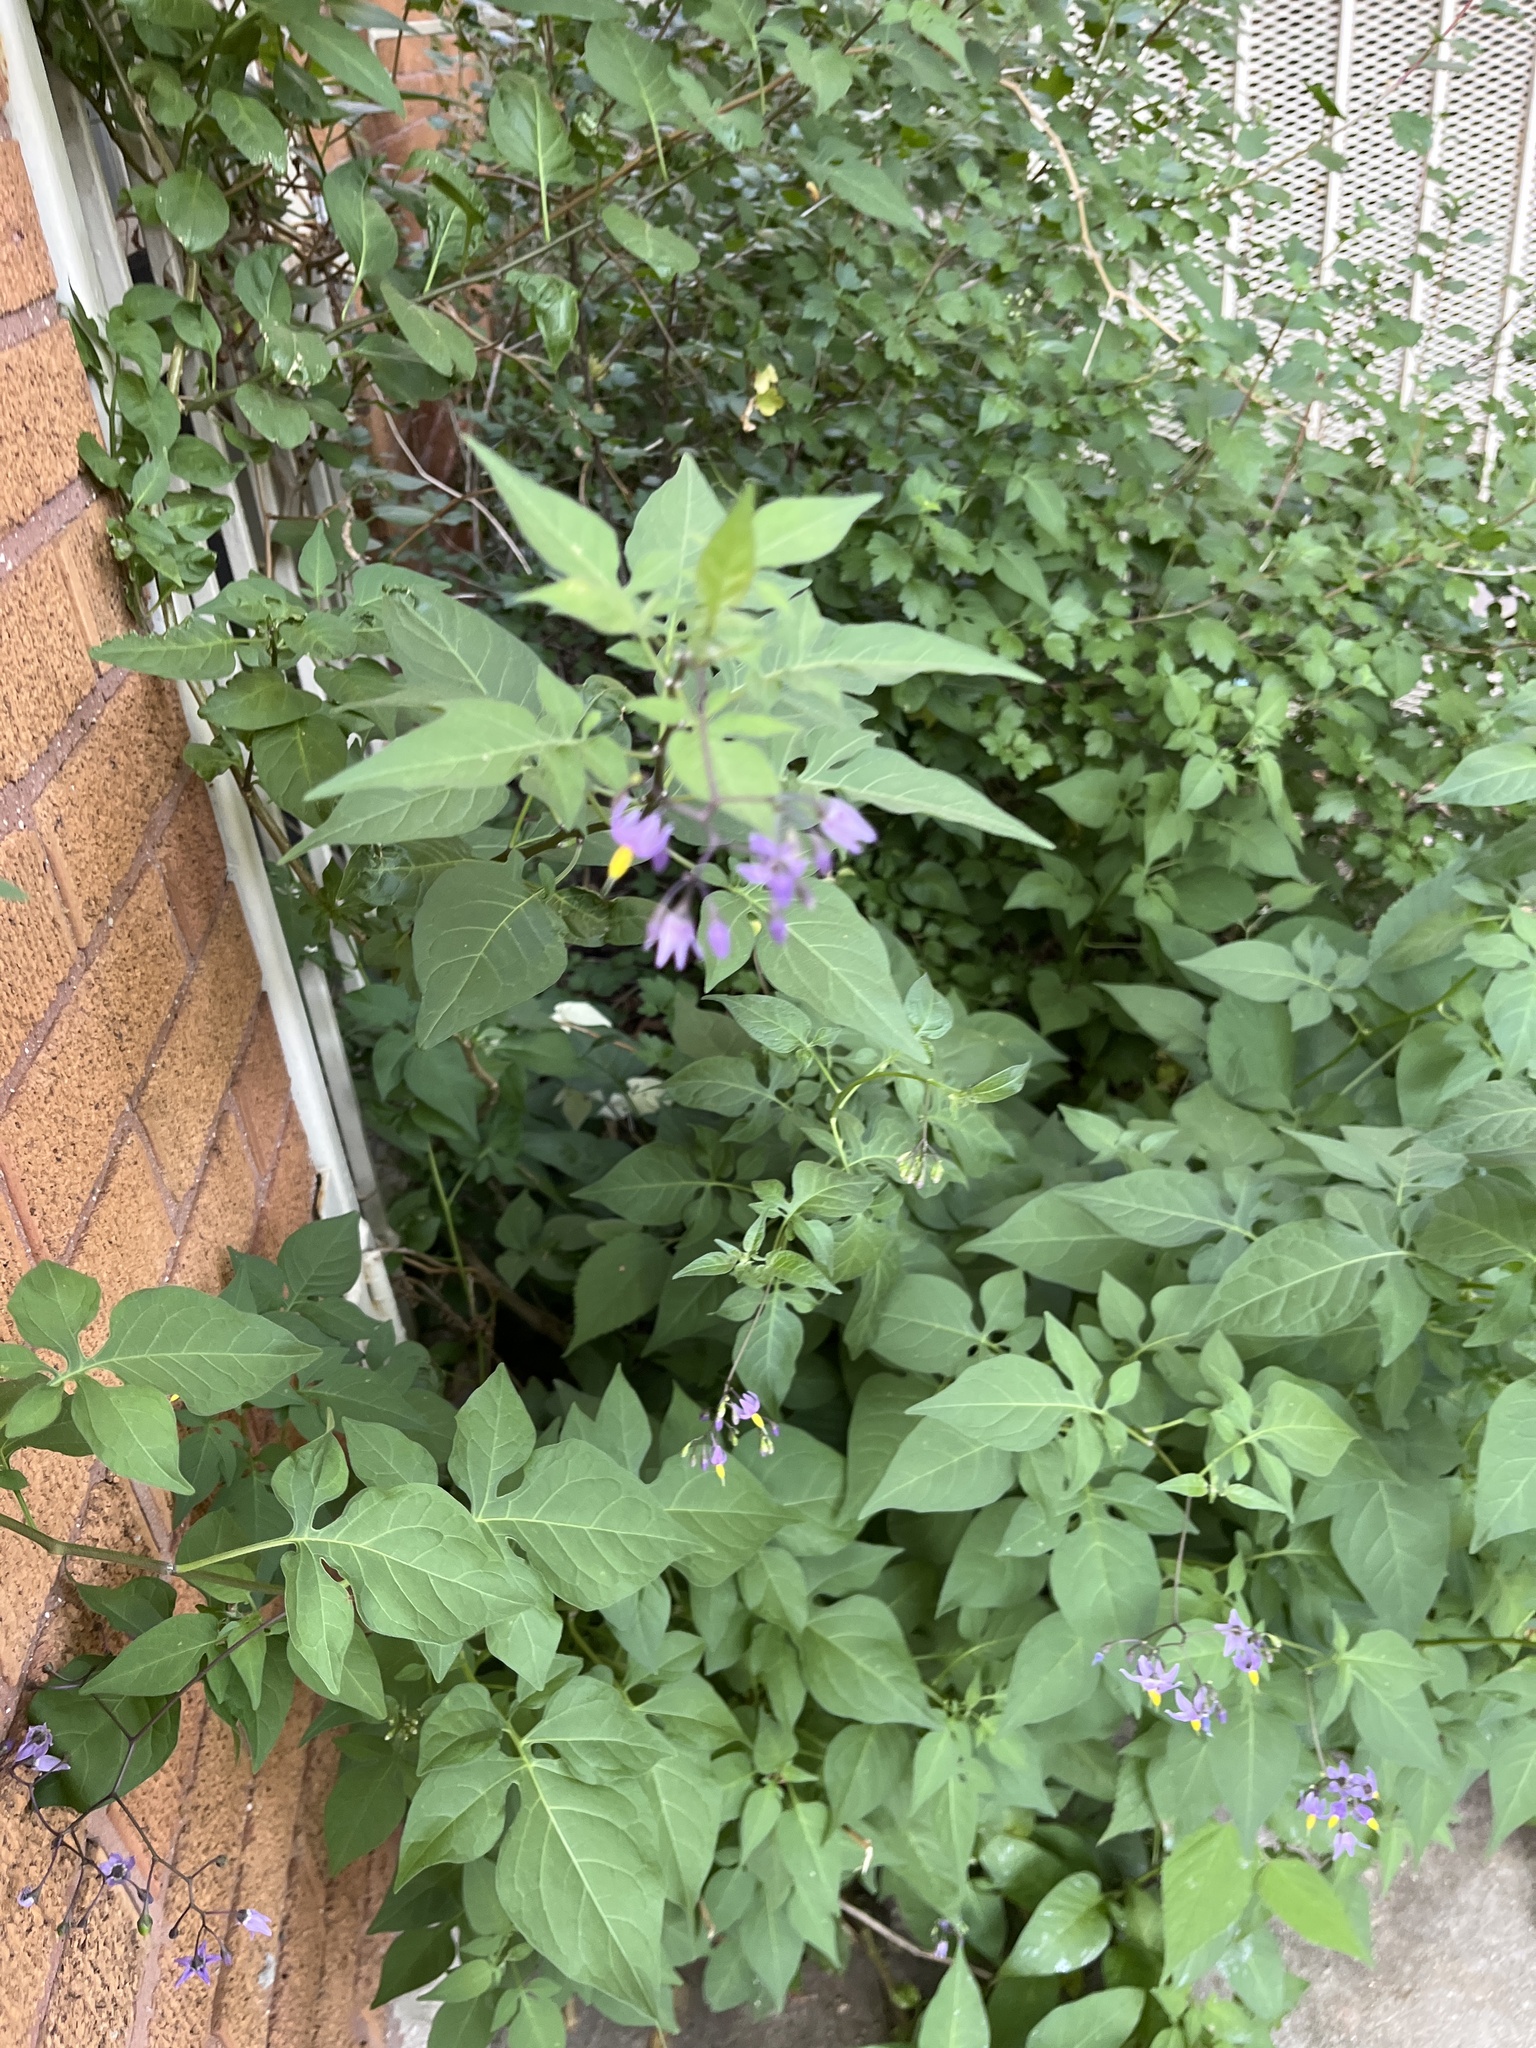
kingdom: Plantae
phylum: Tracheophyta
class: Magnoliopsida
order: Solanales
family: Solanaceae
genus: Solanum
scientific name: Solanum dulcamara
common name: Climbing nightshade
